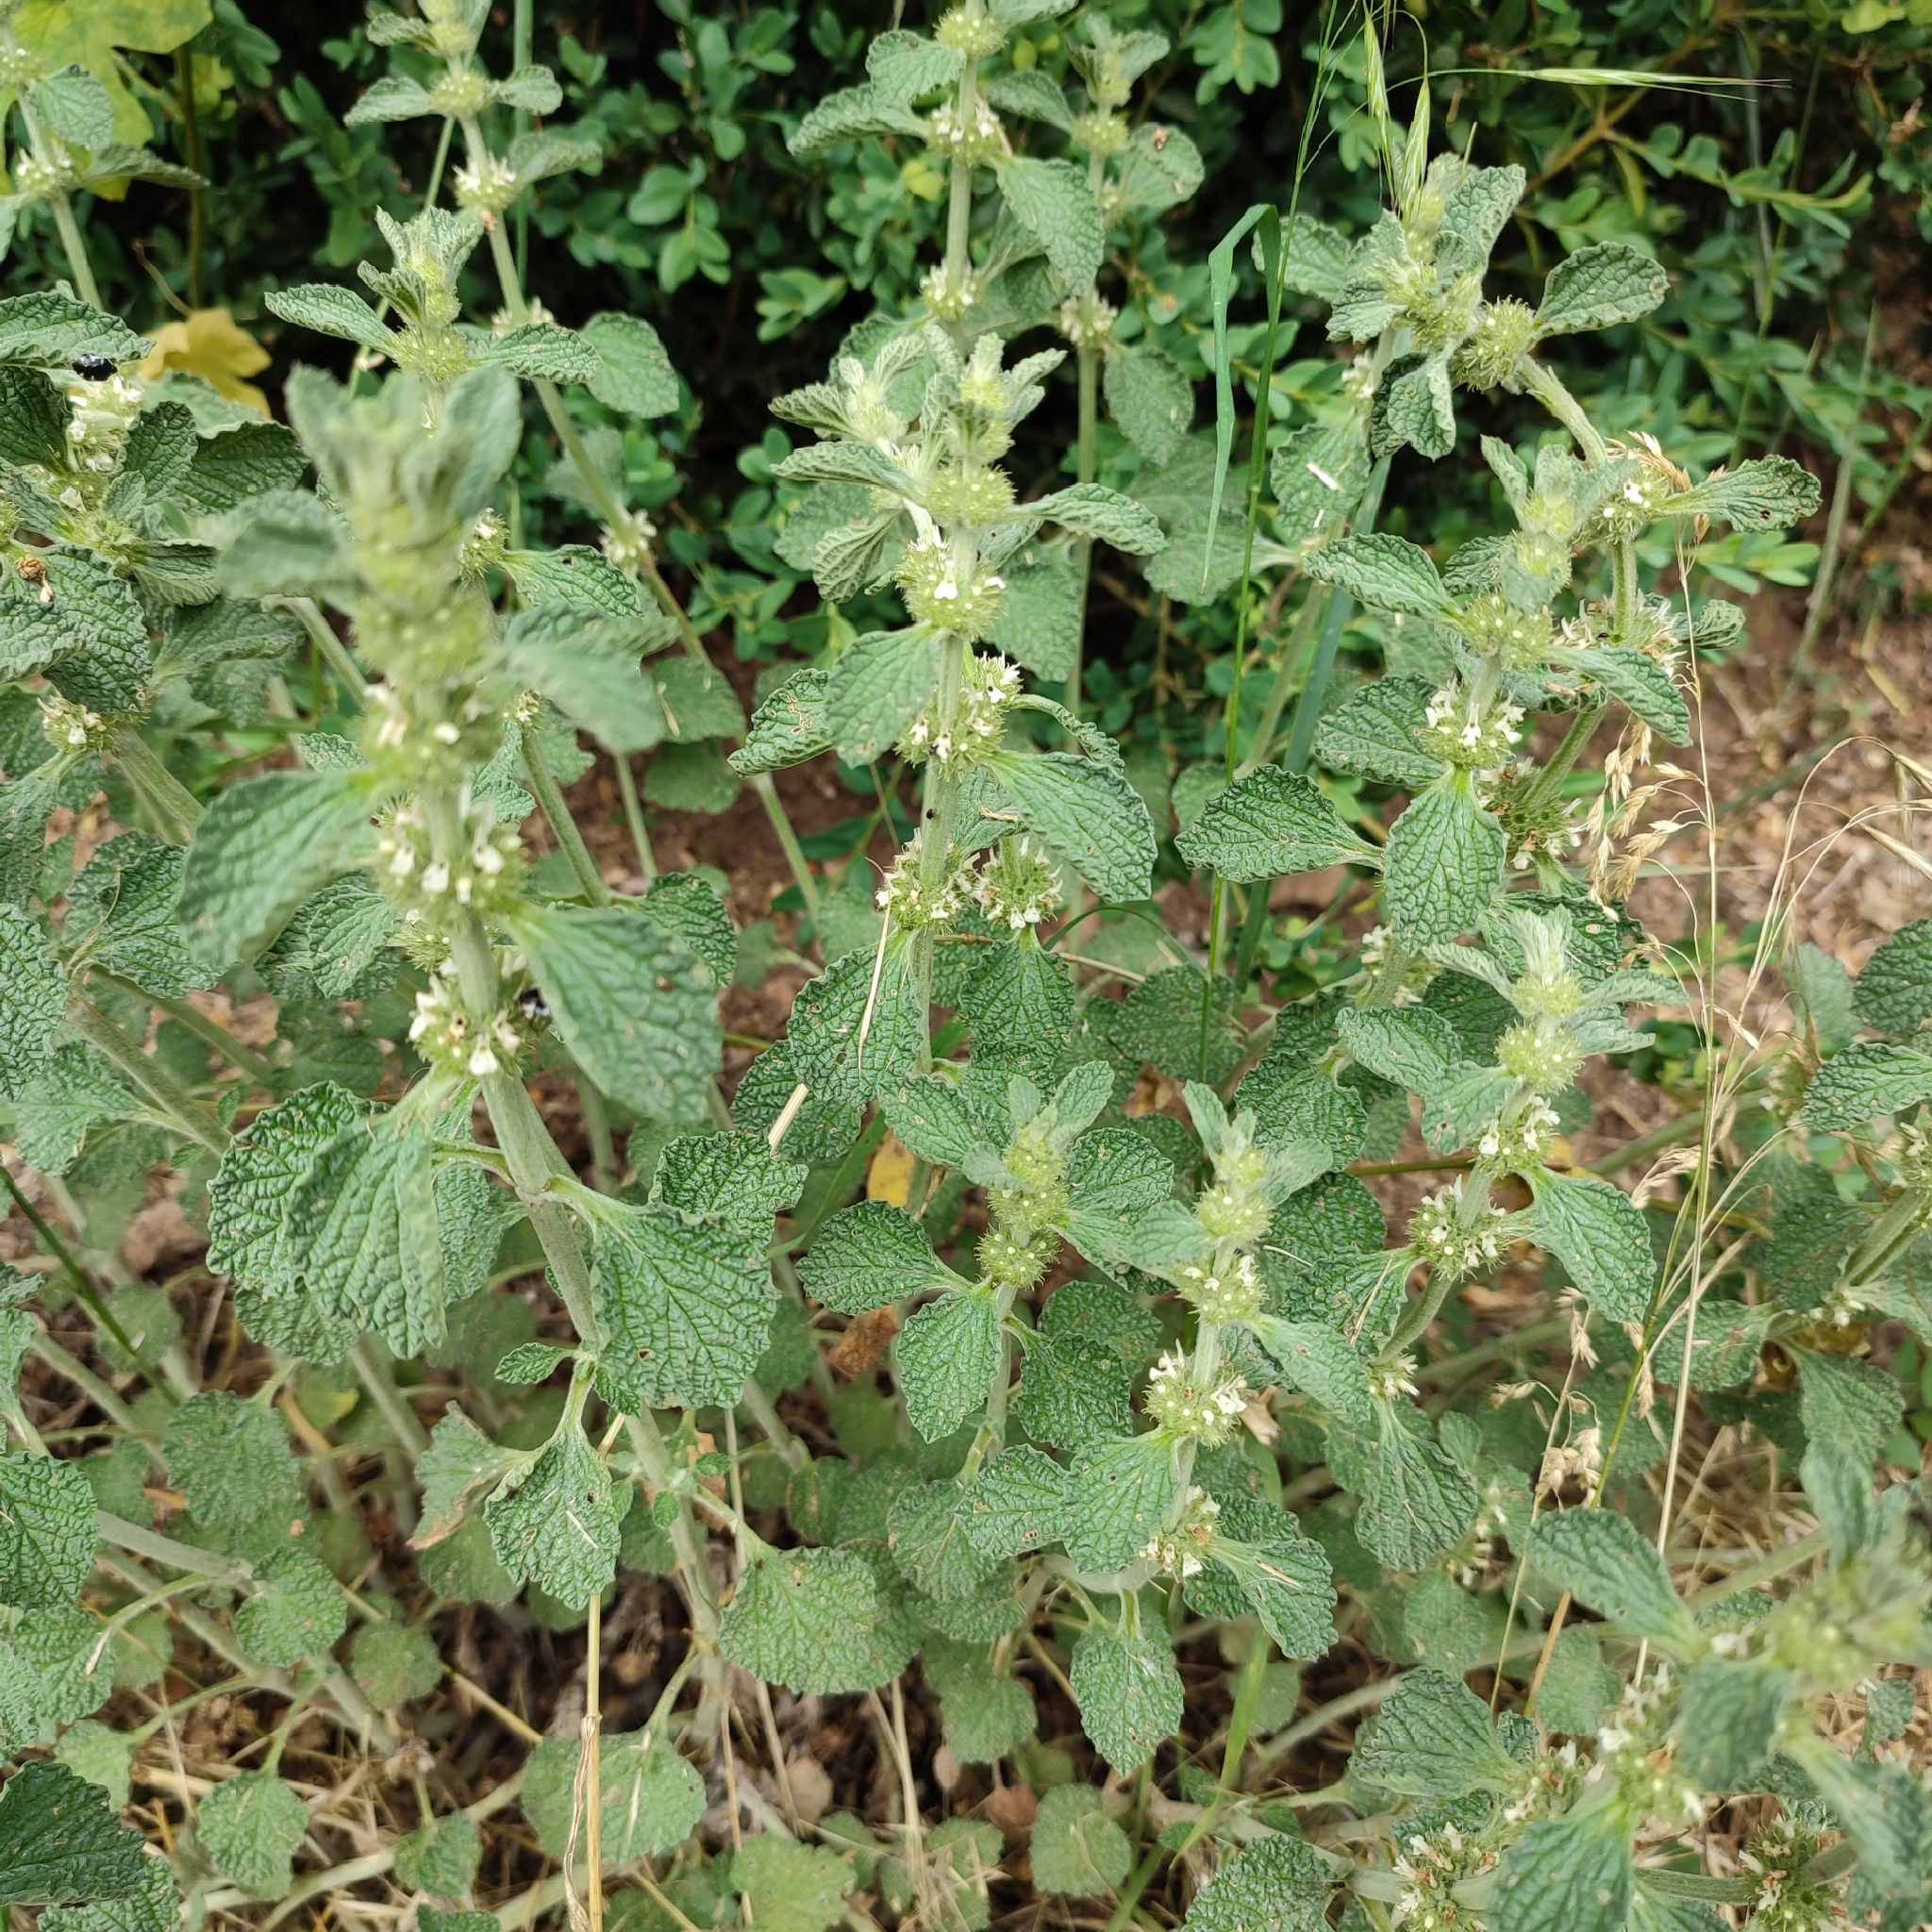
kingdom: Plantae
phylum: Tracheophyta
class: Magnoliopsida
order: Lamiales
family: Lamiaceae
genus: Marrubium
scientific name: Marrubium vulgare
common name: Horehound
